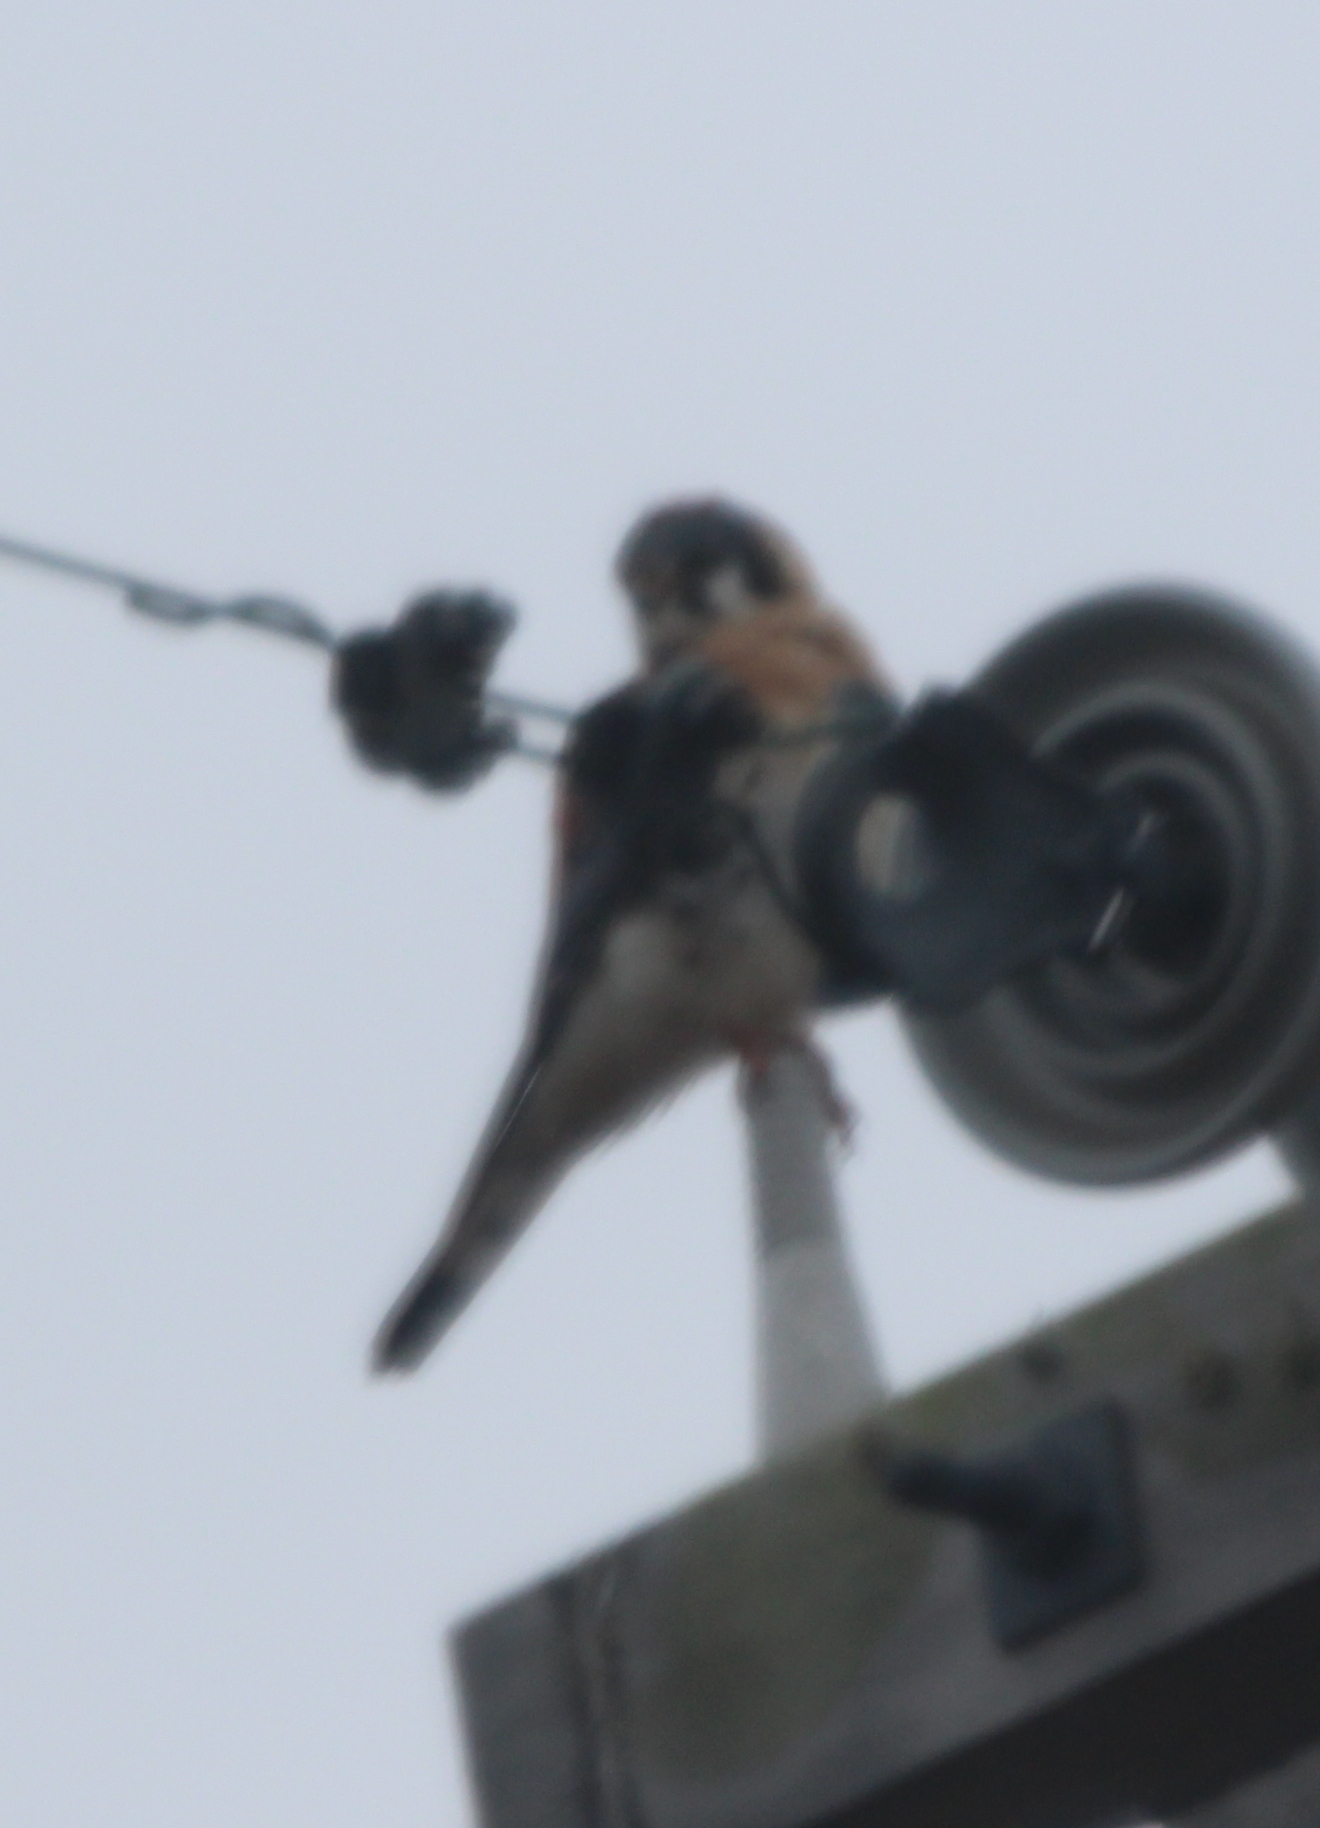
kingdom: Animalia
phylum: Chordata
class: Aves
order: Falconiformes
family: Falconidae
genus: Falco
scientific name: Falco sparverius
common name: American kestrel
